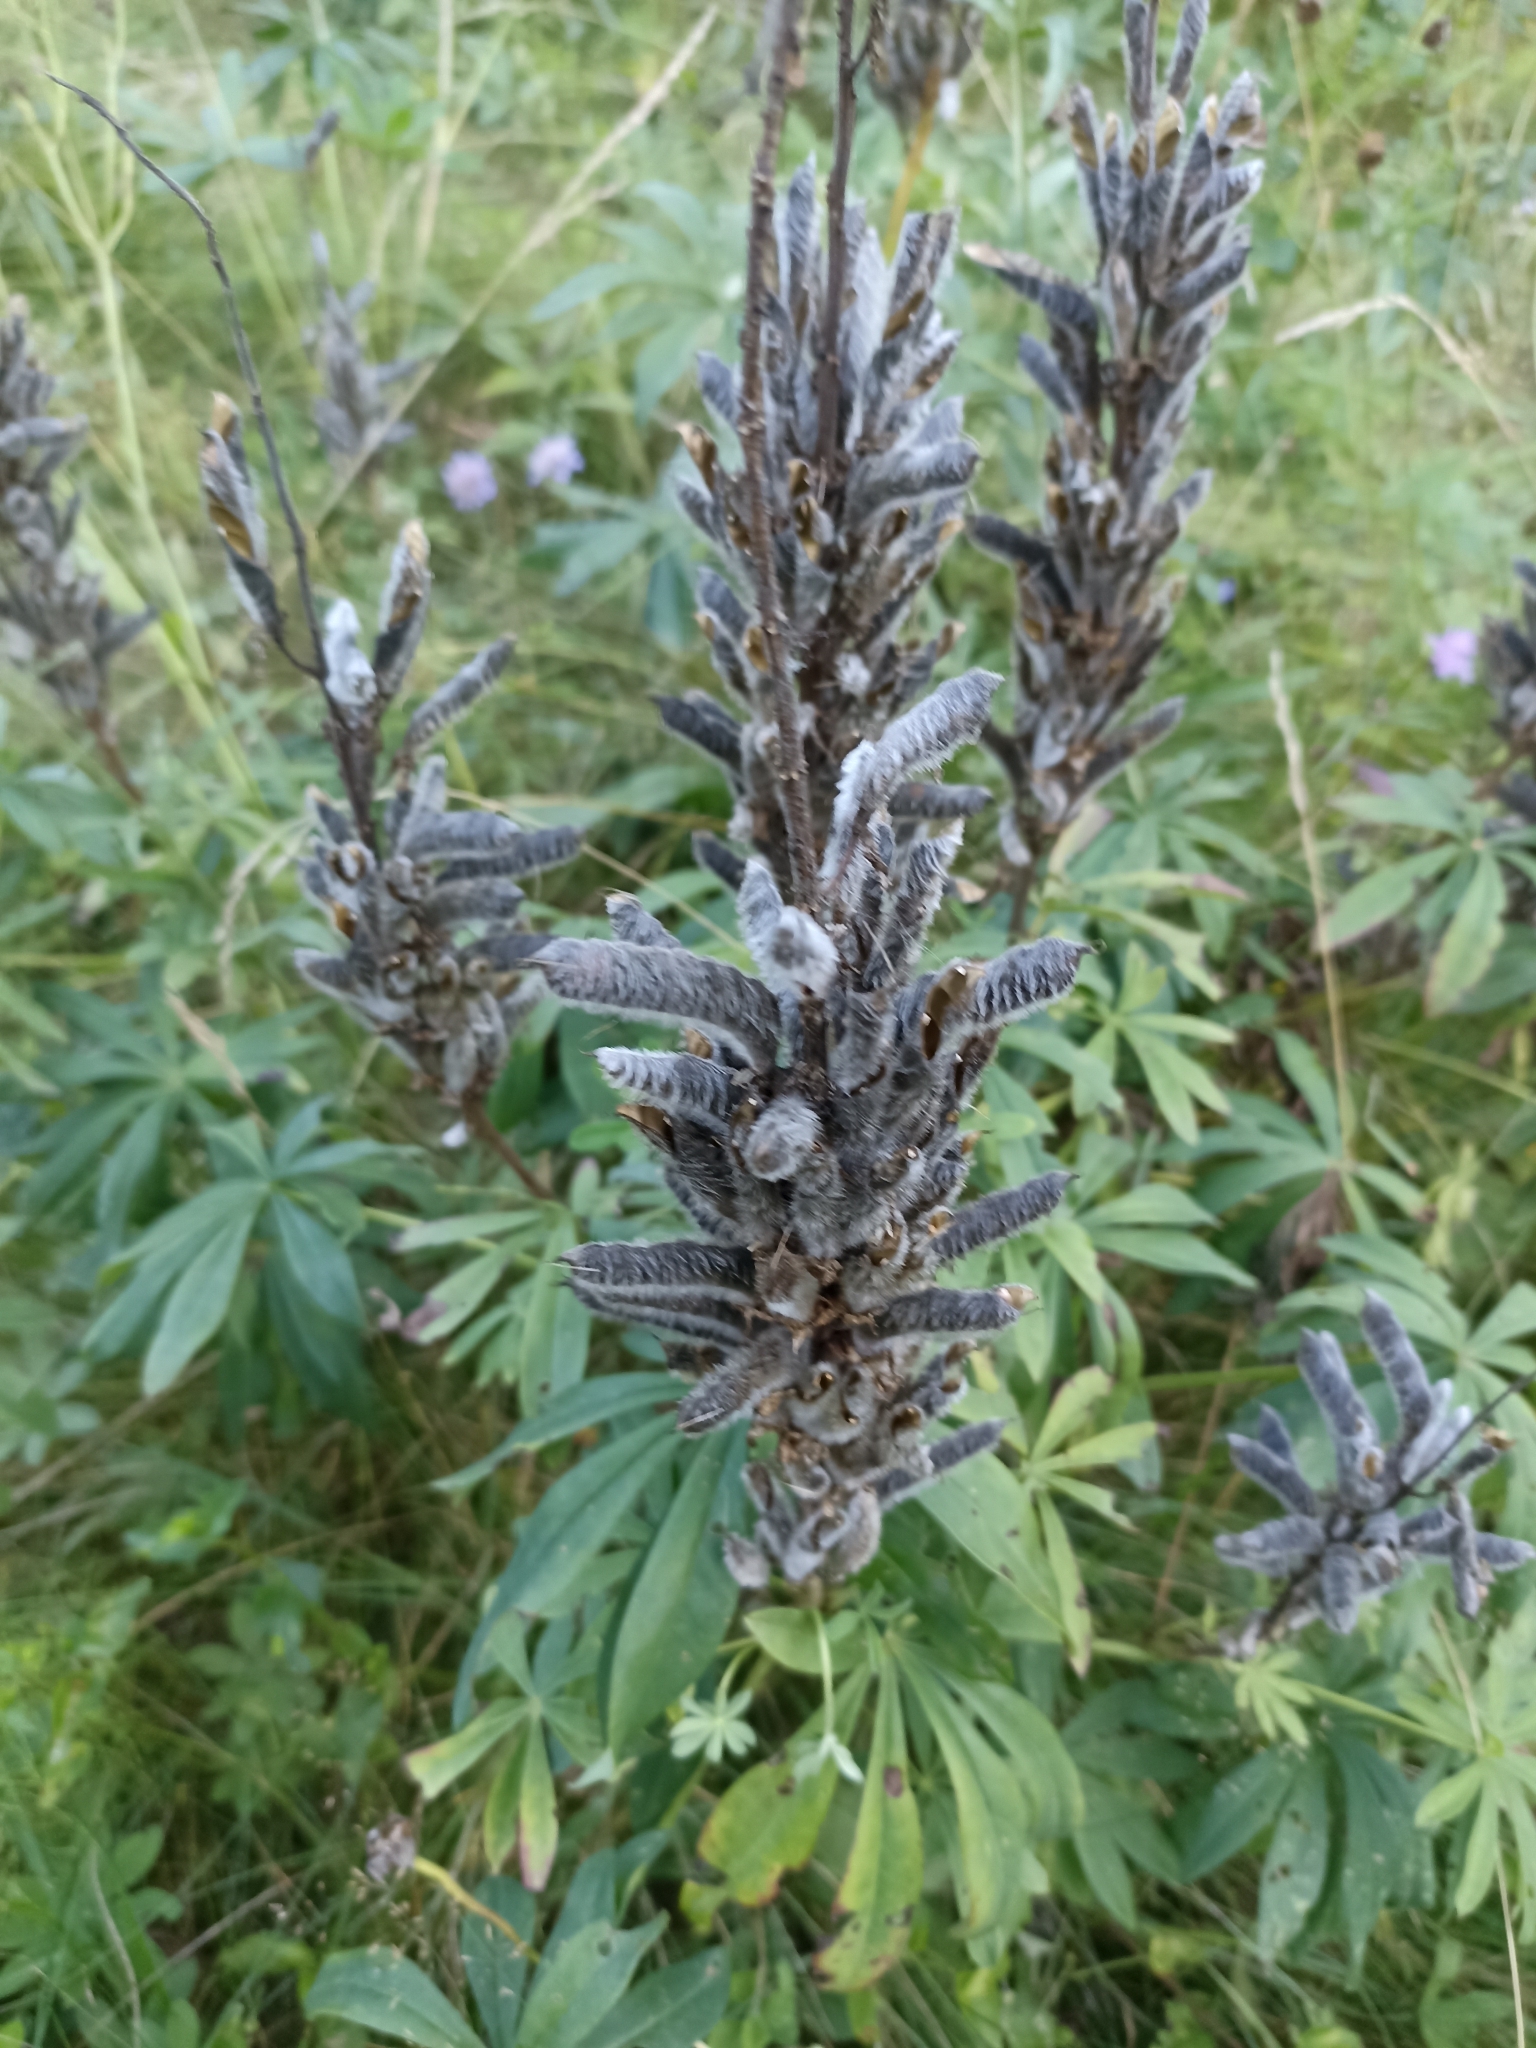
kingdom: Plantae
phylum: Tracheophyta
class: Magnoliopsida
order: Fabales
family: Fabaceae
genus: Lupinus
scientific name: Lupinus polyphyllus
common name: Garden lupin
